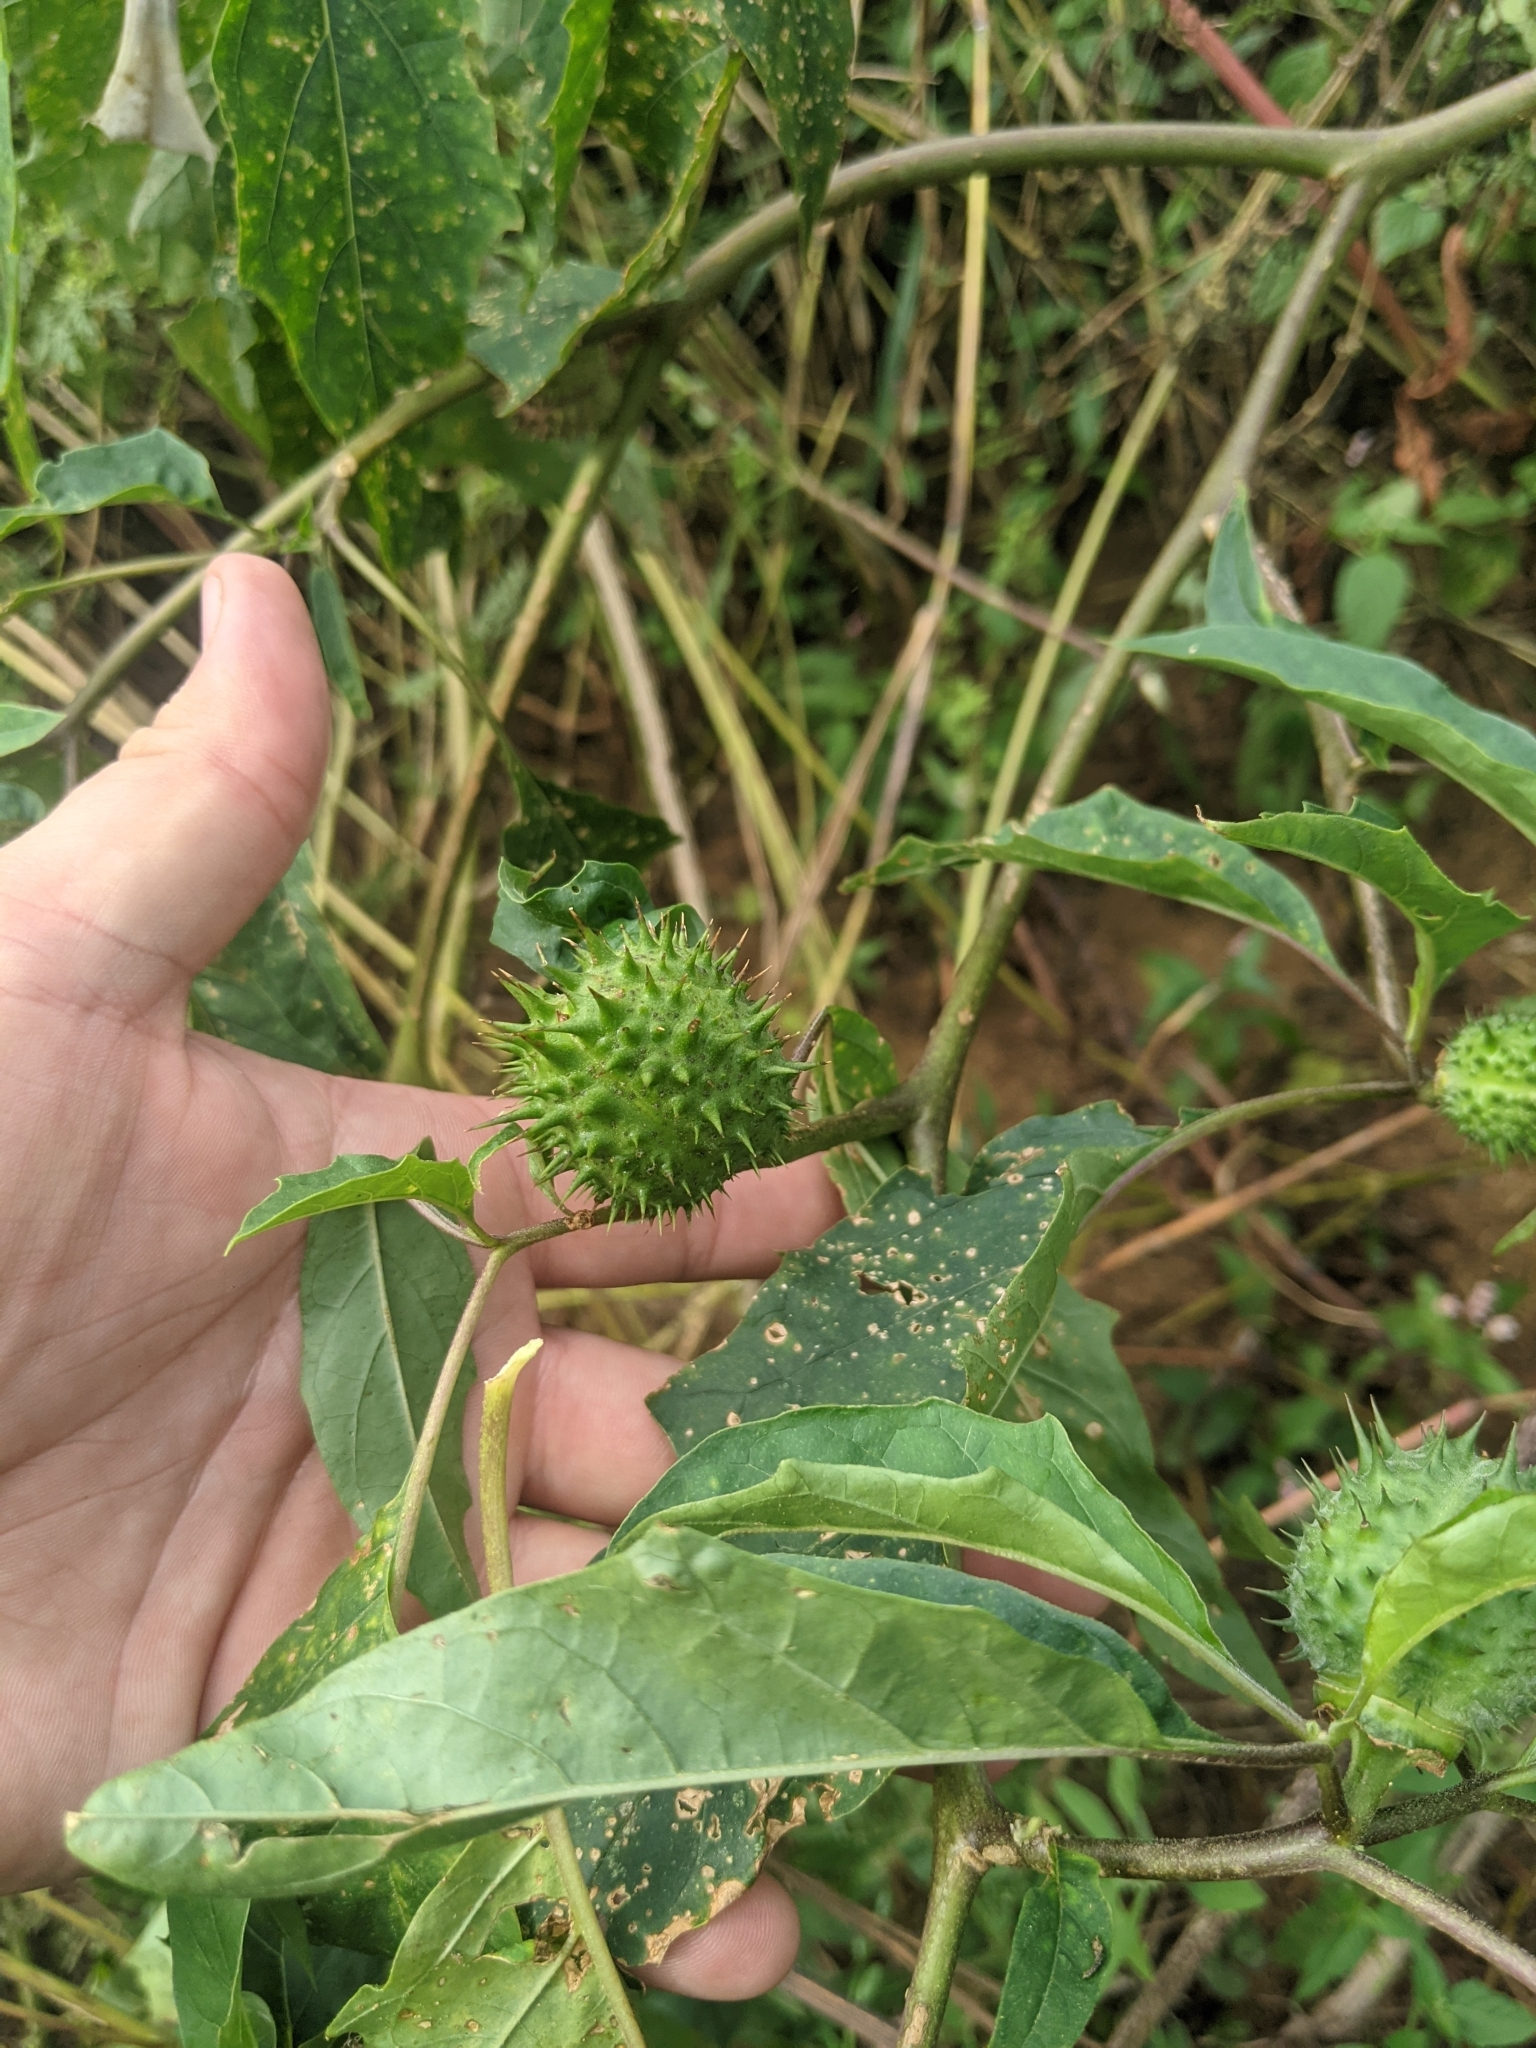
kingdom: Plantae
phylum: Tracheophyta
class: Magnoliopsida
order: Solanales
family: Solanaceae
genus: Datura
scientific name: Datura stramonium
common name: Thorn-apple
